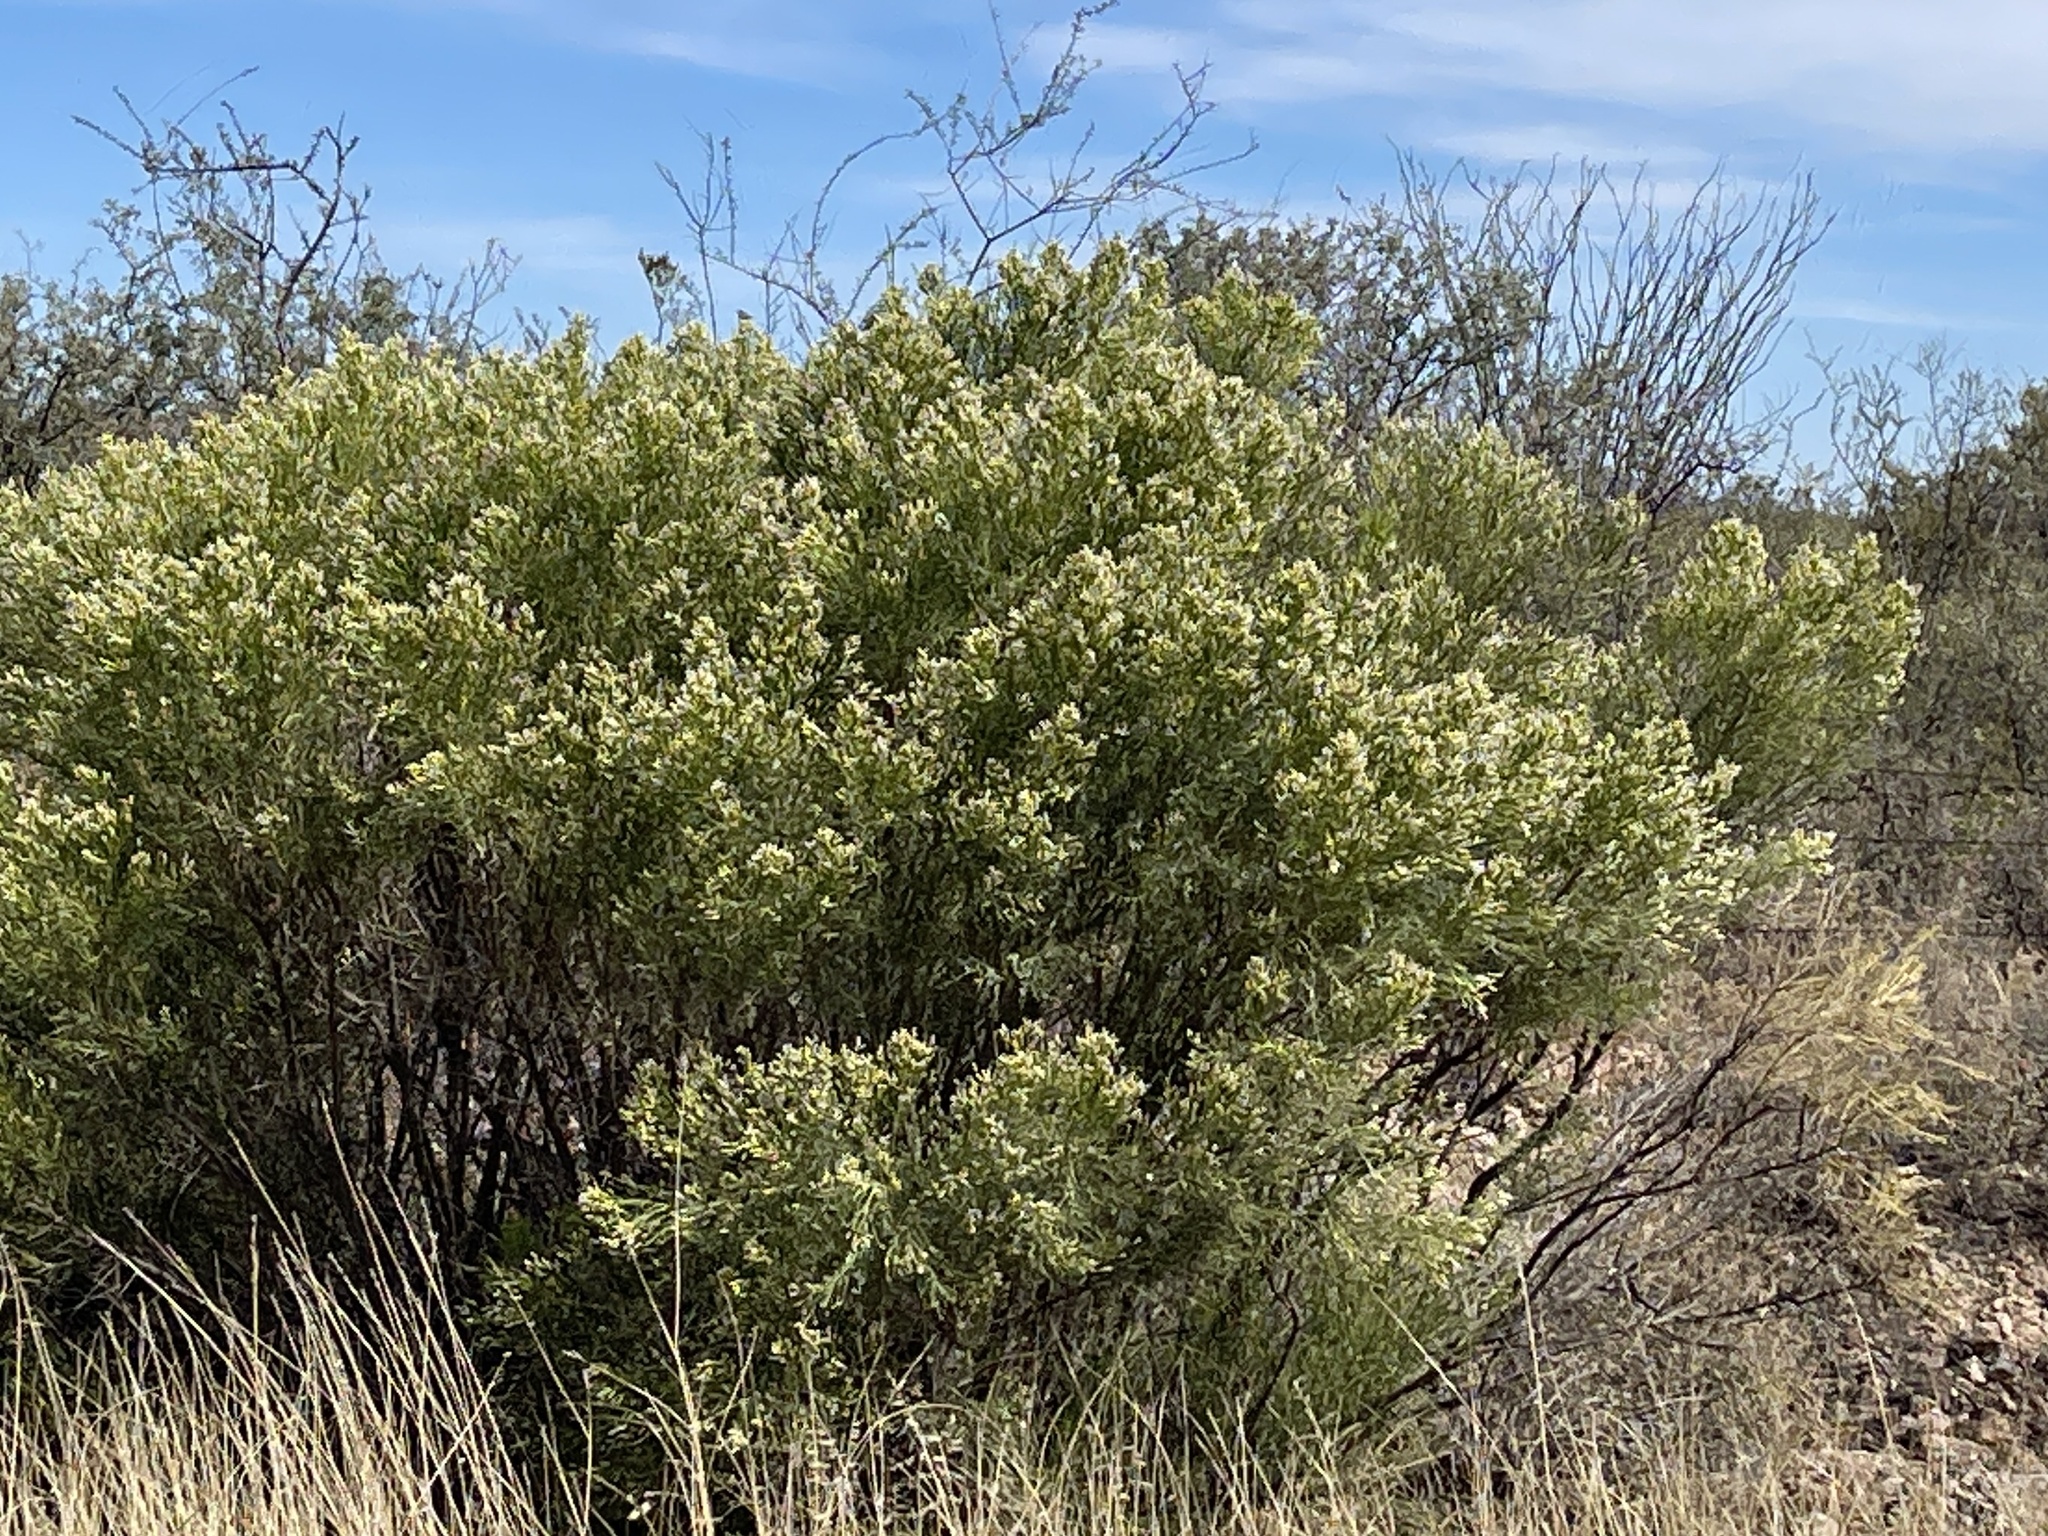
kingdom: Plantae
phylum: Tracheophyta
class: Magnoliopsida
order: Asterales
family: Asteraceae
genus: Baccharis
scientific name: Baccharis sarothroides
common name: Desert-broom
